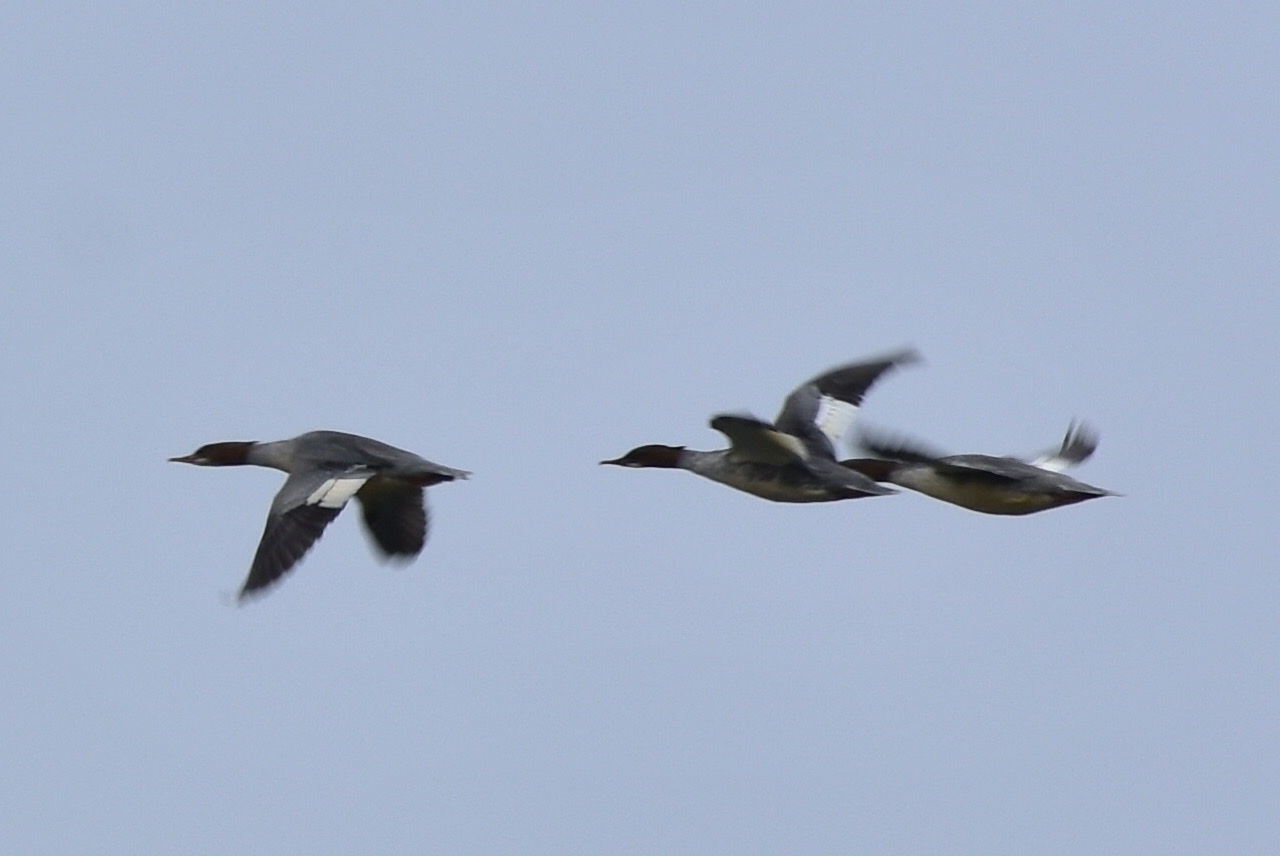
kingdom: Animalia
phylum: Chordata
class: Aves
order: Anseriformes
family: Anatidae
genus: Mergus
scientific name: Mergus merganser
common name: Common merganser
